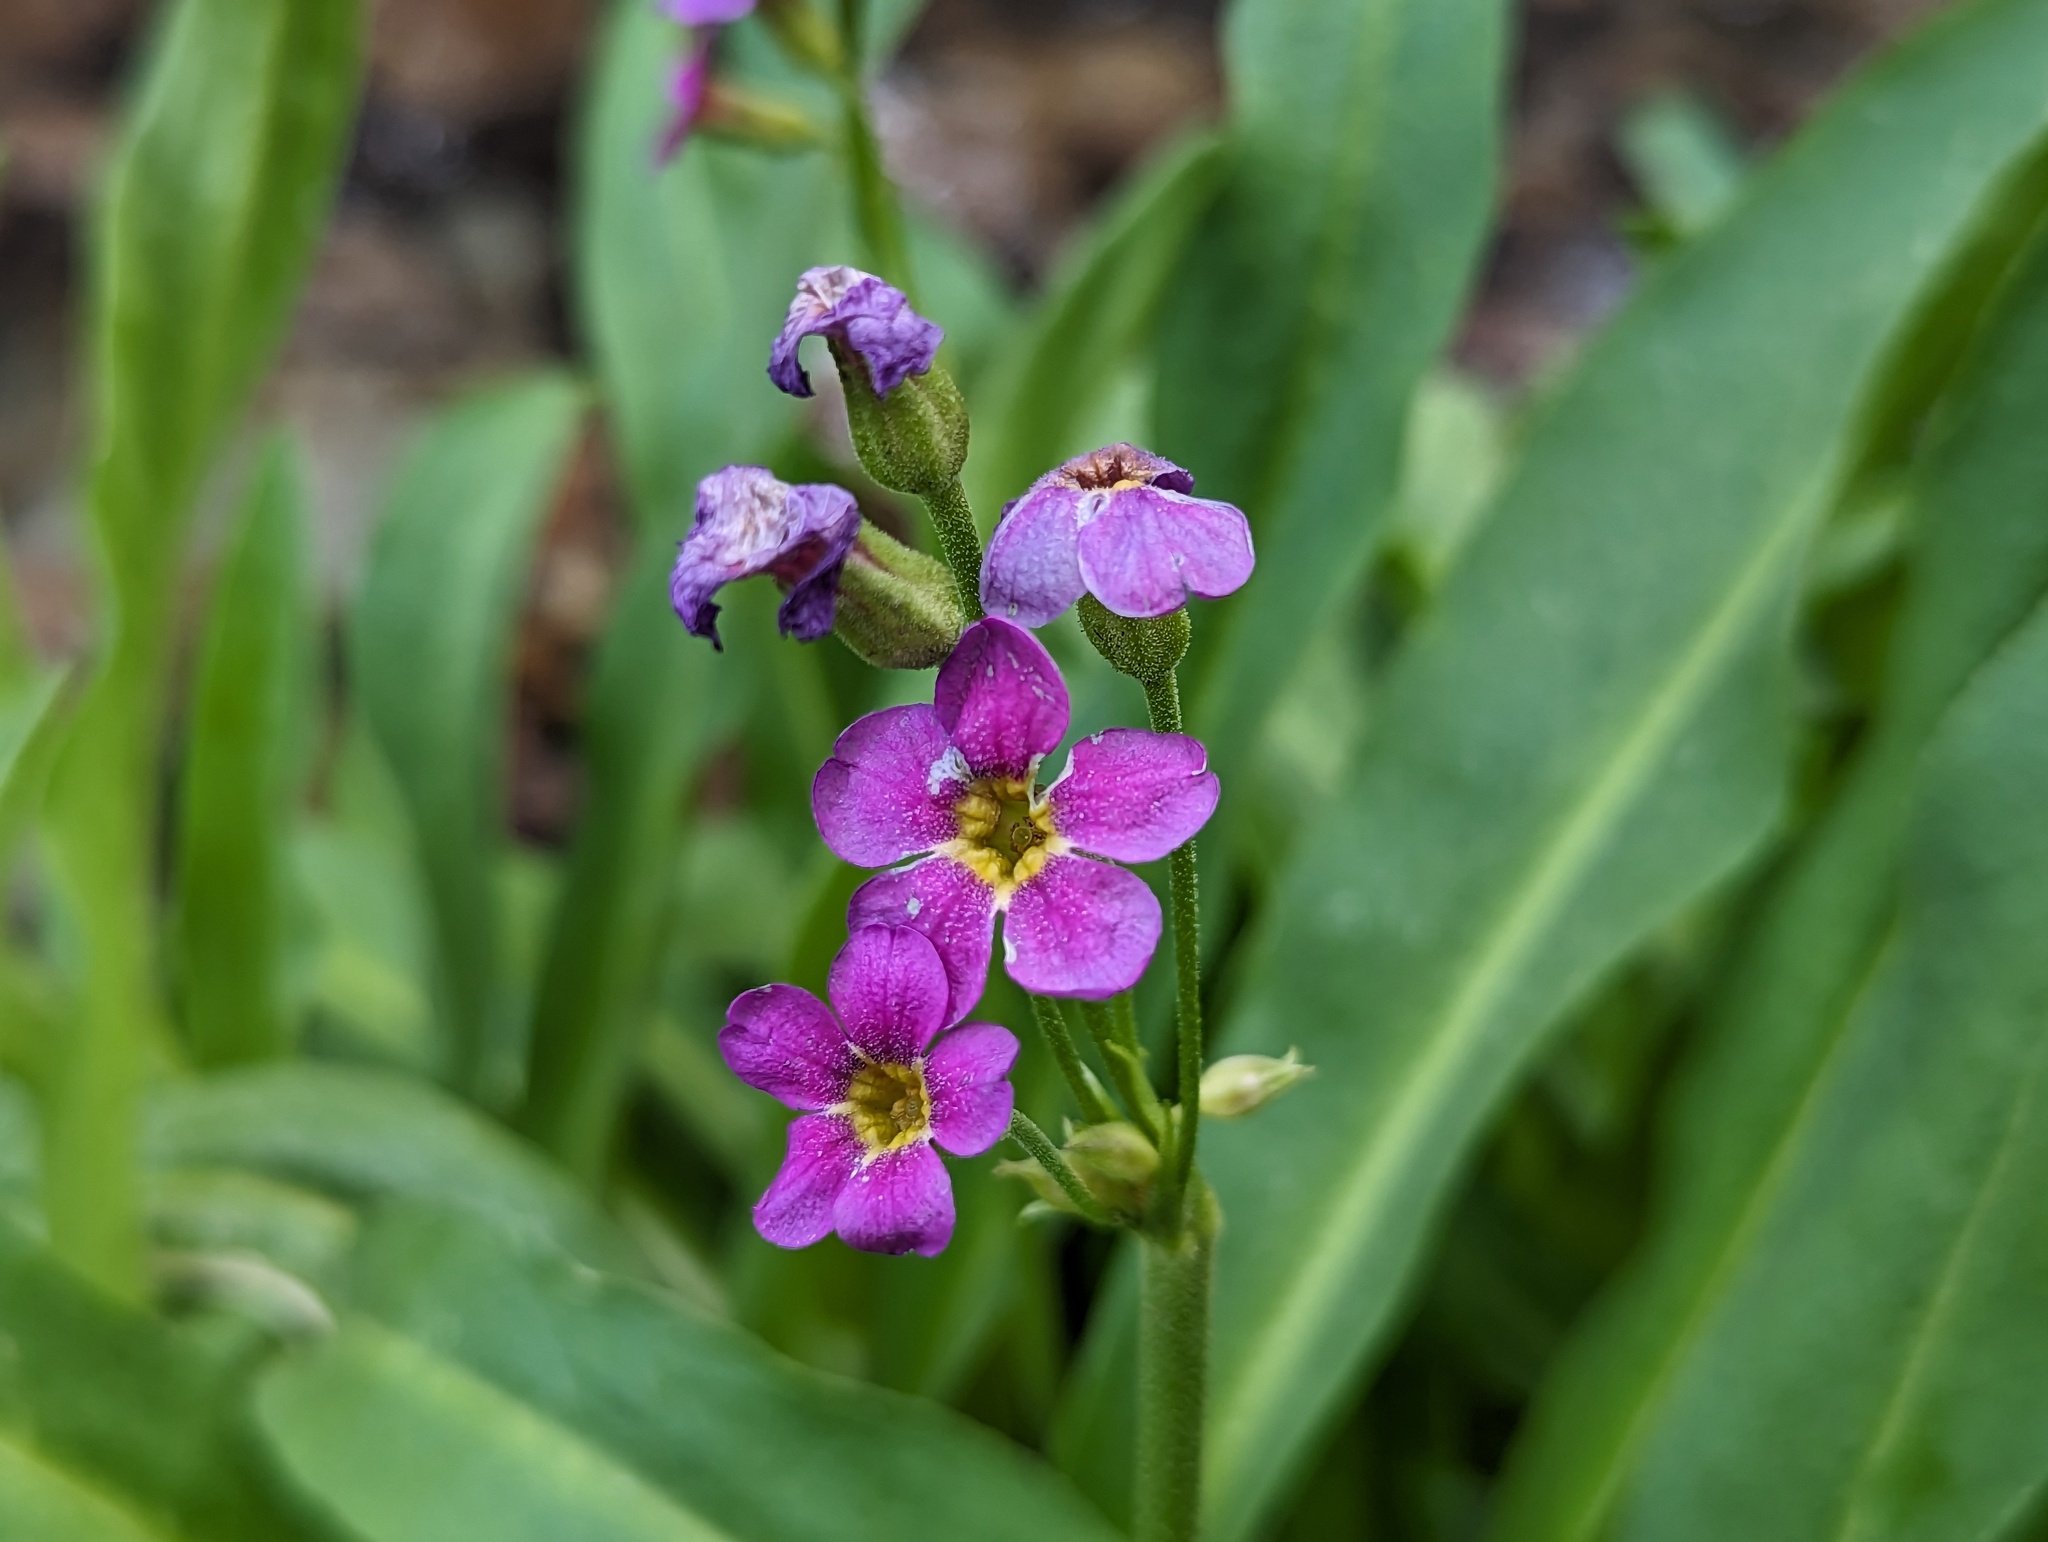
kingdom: Plantae
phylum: Tracheophyta
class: Magnoliopsida
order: Ericales
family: Primulaceae
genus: Primula
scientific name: Primula parryi
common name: Parry's primrose
